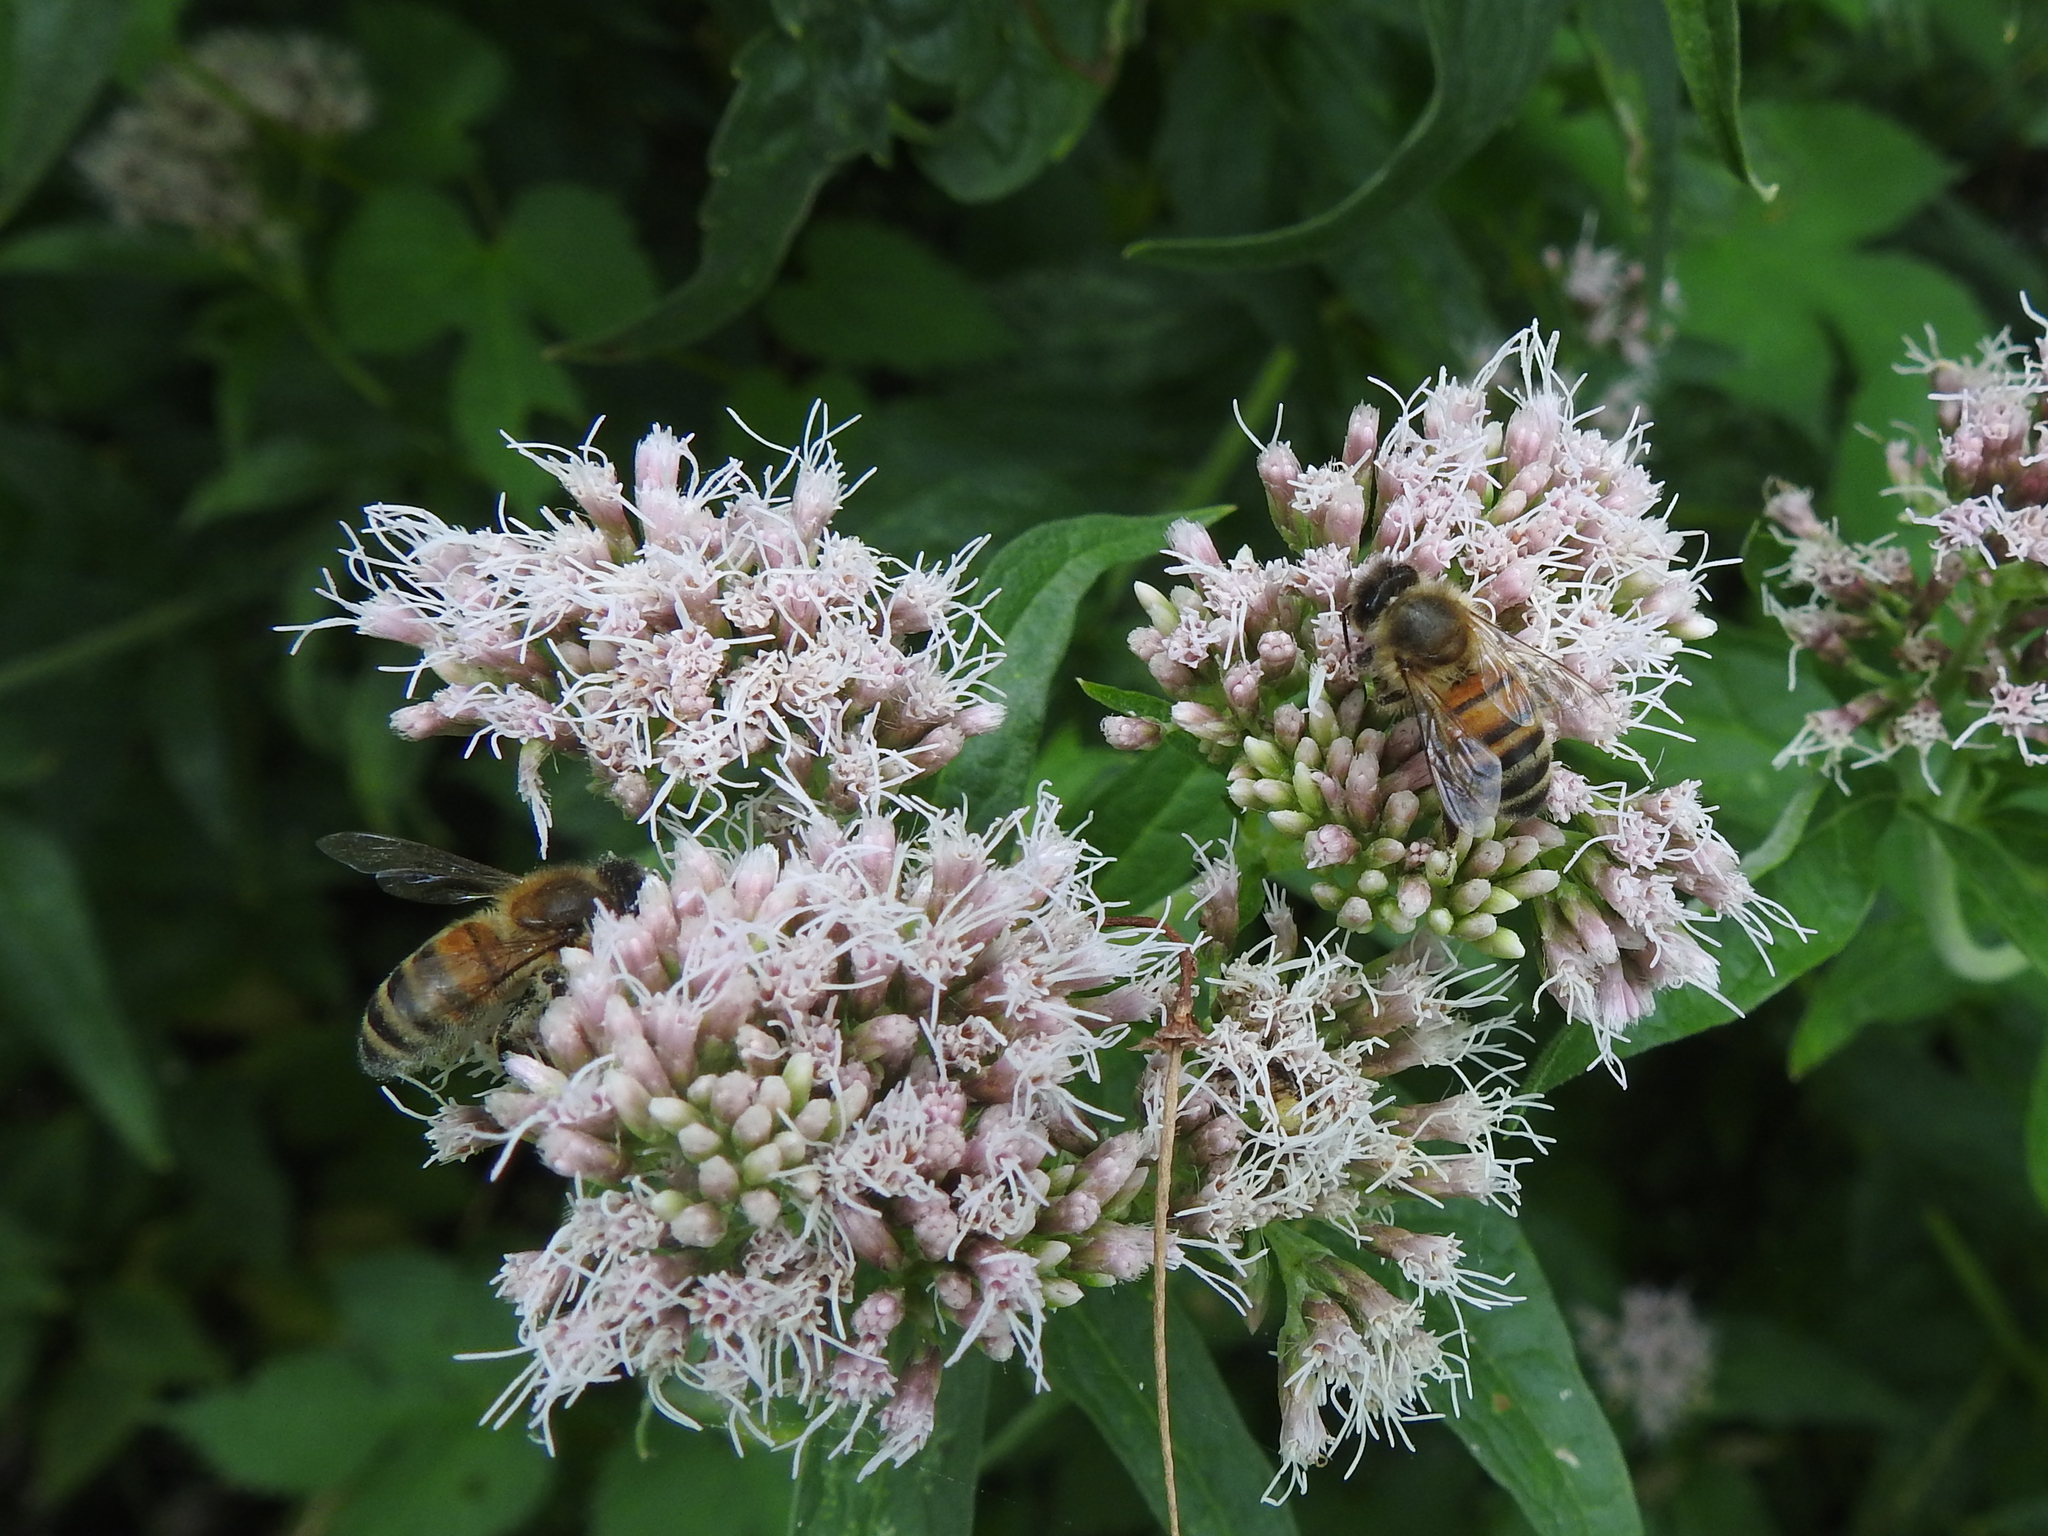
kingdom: Animalia
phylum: Arthropoda
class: Insecta
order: Hymenoptera
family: Apidae
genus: Apis
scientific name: Apis mellifera
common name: Honey bee
